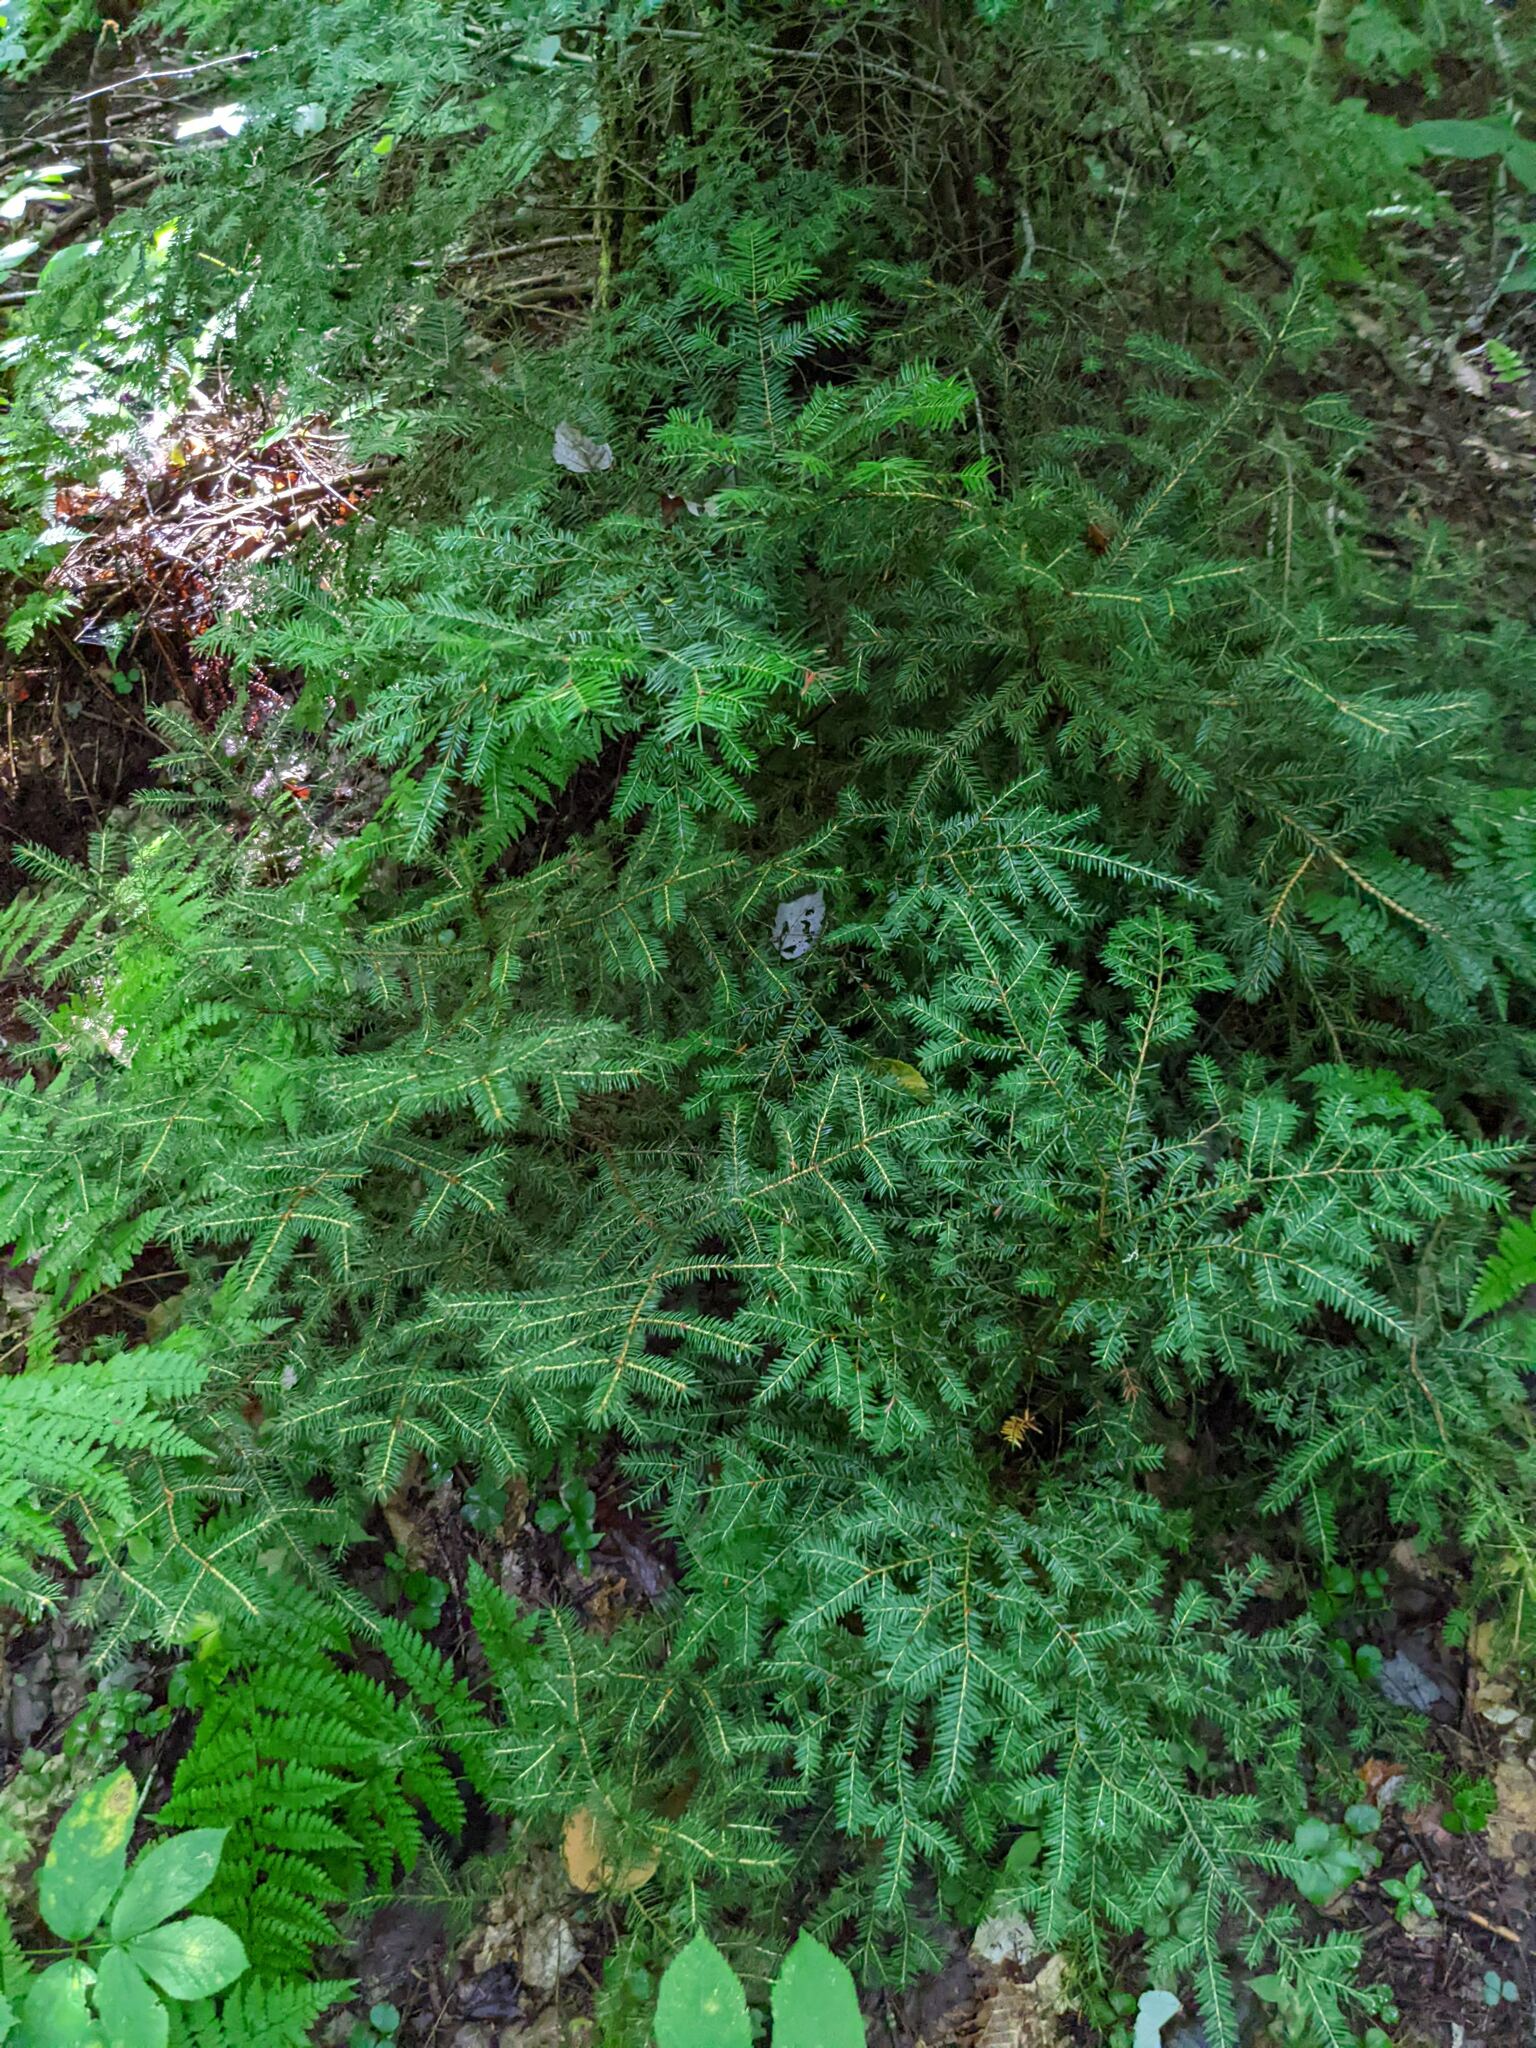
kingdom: Plantae
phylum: Tracheophyta
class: Pinopsida
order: Pinales
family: Pinaceae
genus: Tsuga
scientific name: Tsuga canadensis
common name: Eastern hemlock
